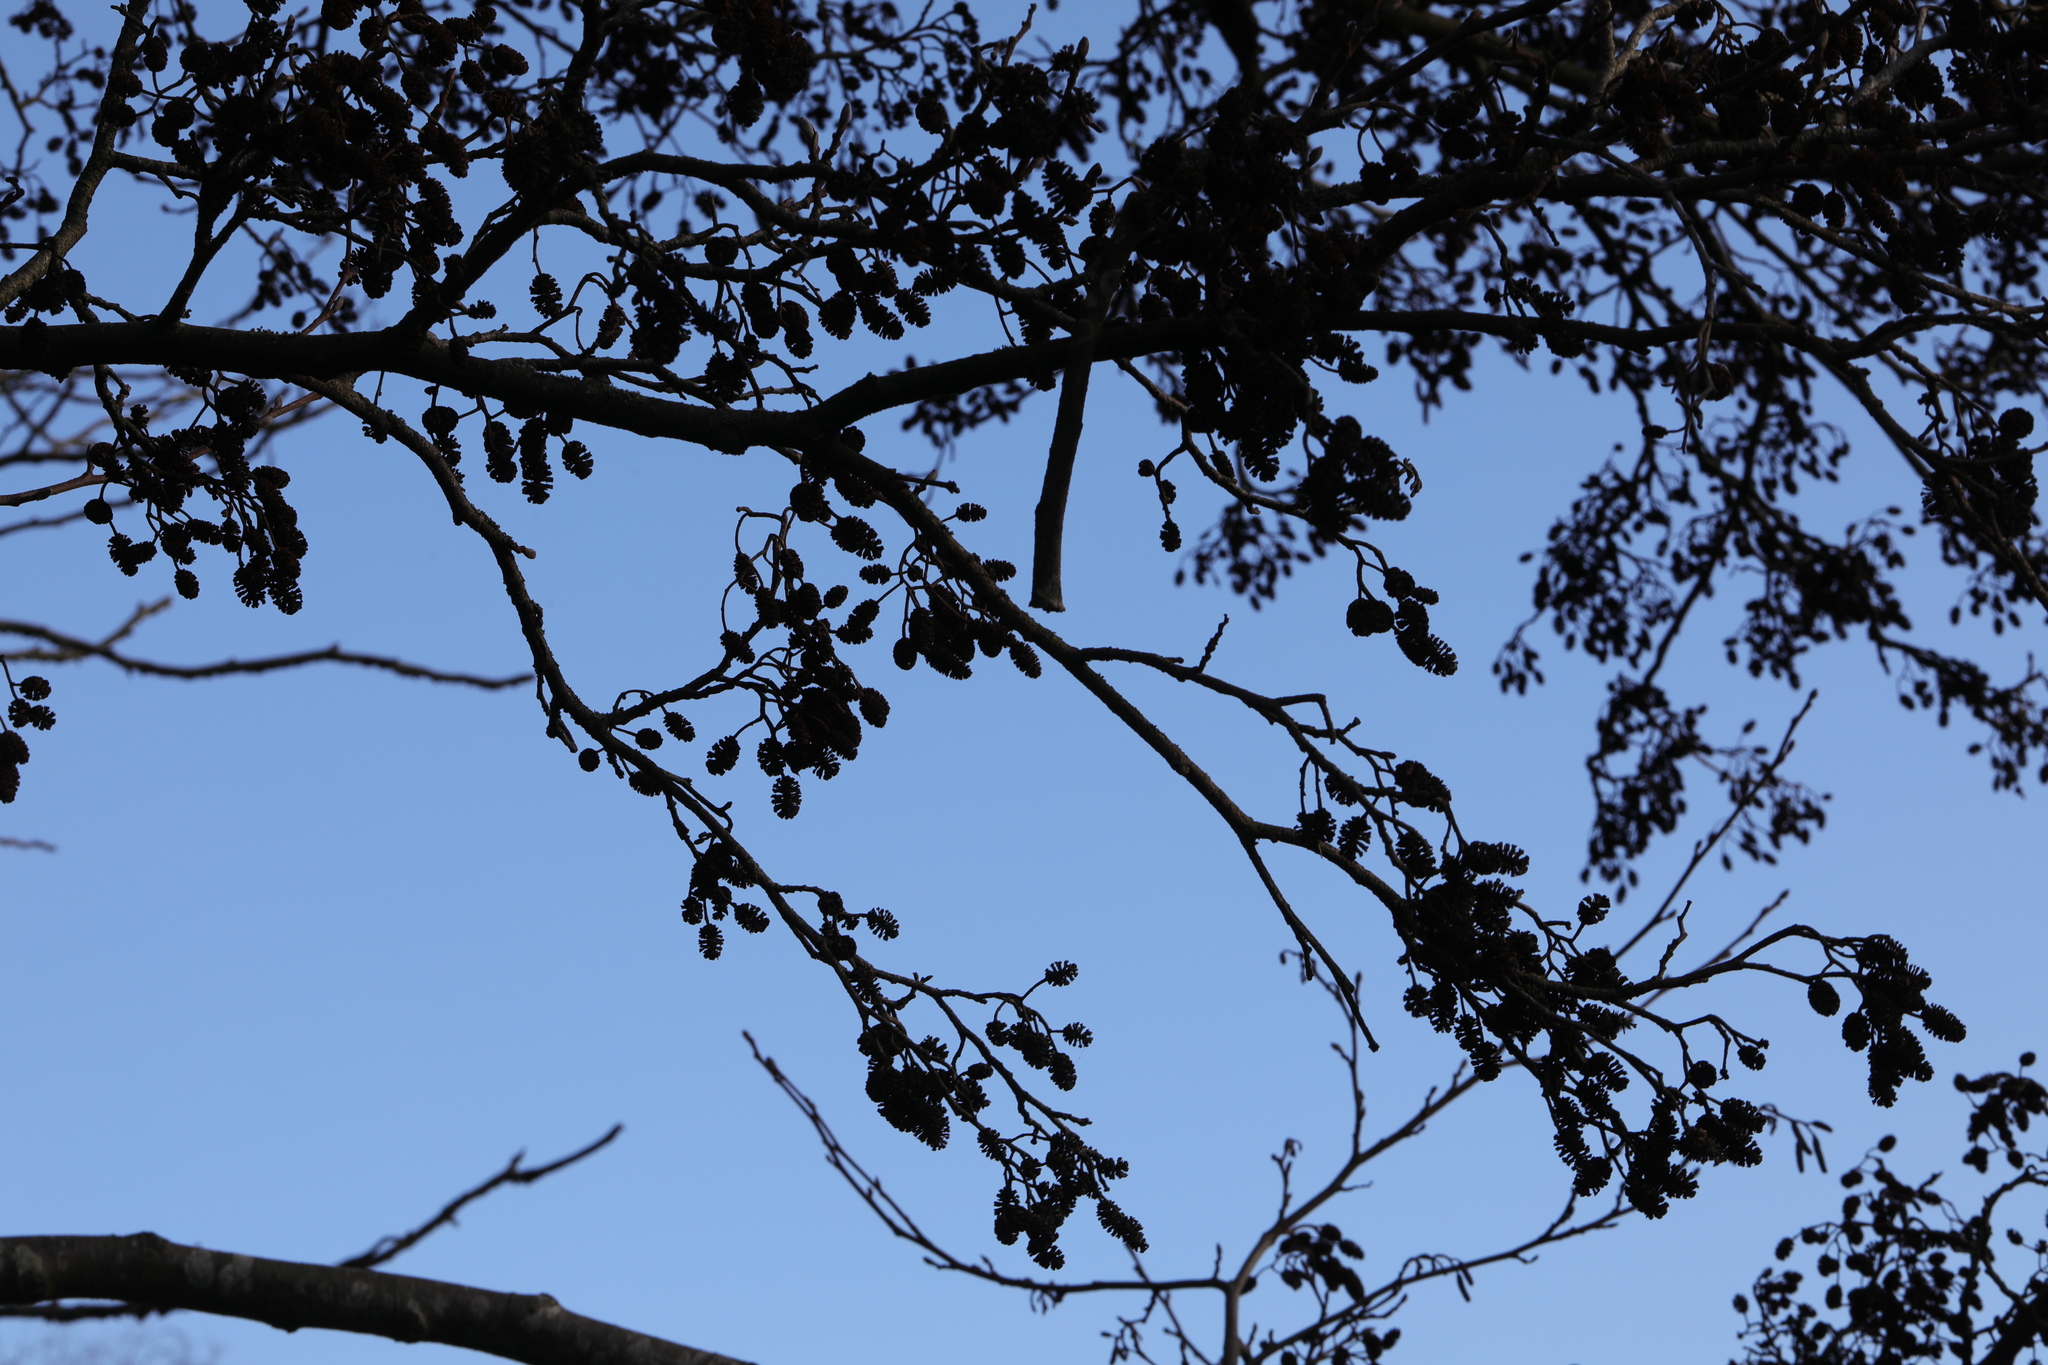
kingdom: Plantae
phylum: Tracheophyta
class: Magnoliopsida
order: Fagales
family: Betulaceae
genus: Alnus
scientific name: Alnus glutinosa
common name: Black alder
